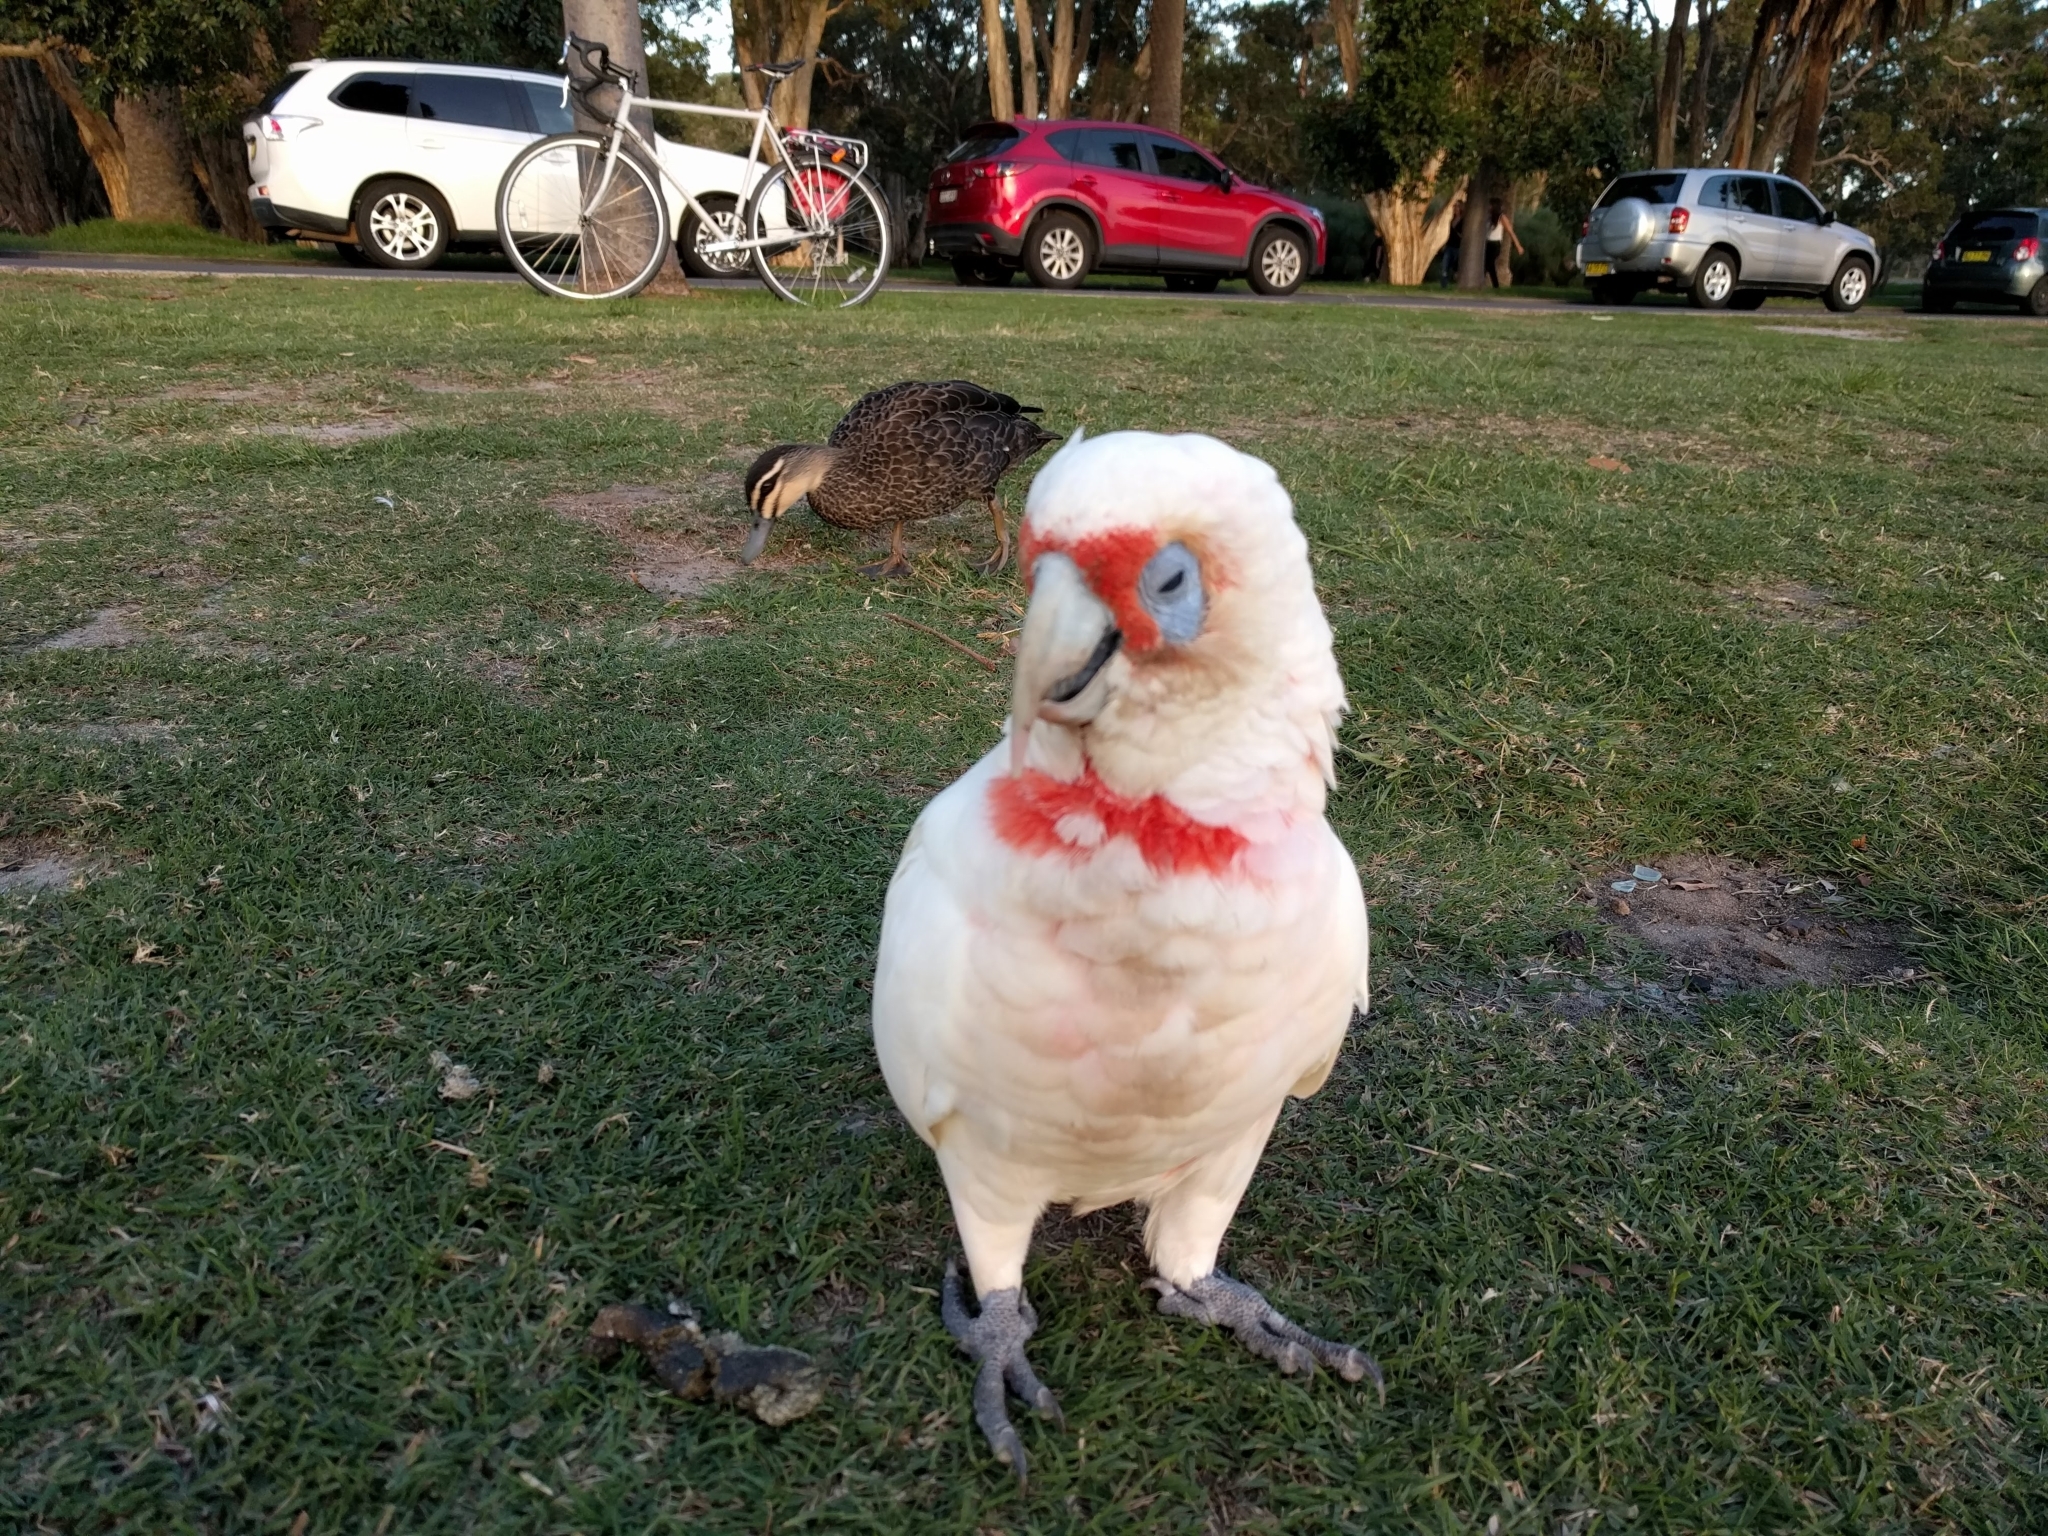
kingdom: Animalia
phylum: Chordata
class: Aves
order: Psittaciformes
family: Psittacidae
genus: Cacatua
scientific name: Cacatua tenuirostris
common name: Long-billed corella
